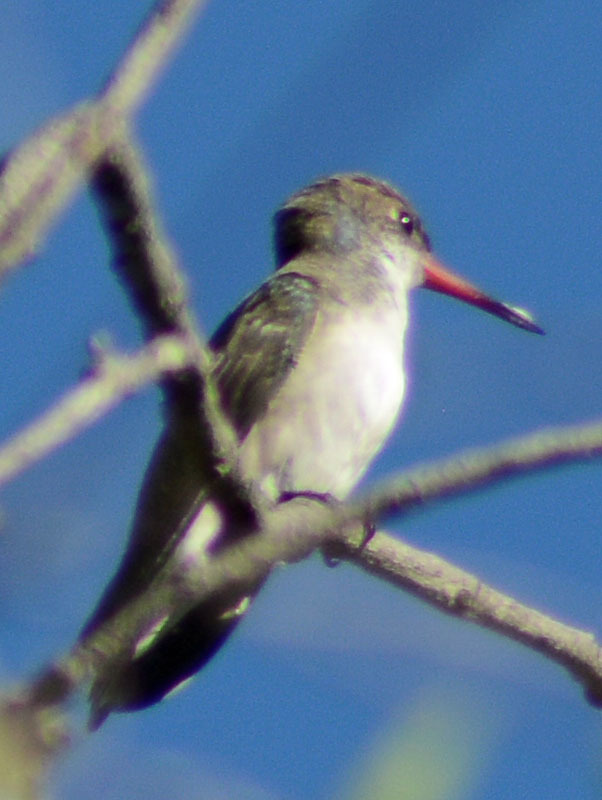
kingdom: Animalia
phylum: Chordata
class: Aves
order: Apodiformes
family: Trochilidae
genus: Leucolia
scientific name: Leucolia violiceps
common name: Violet-crowned hummingbird
